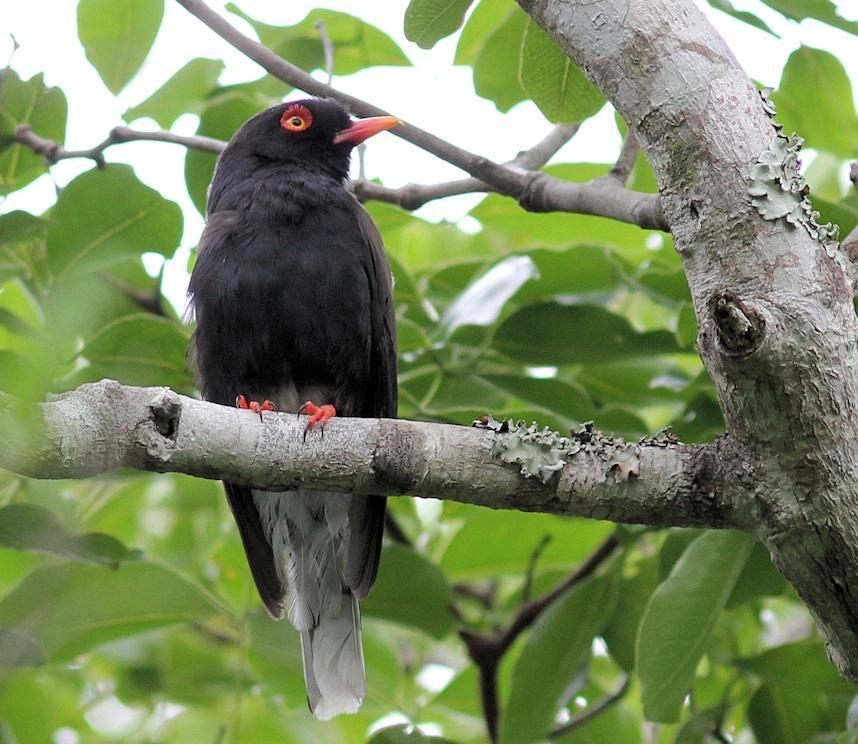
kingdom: Animalia
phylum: Chordata
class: Aves
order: Passeriformes
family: Prionopidae
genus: Prionops
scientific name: Prionops retzii
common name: Retz's helmetshrike
